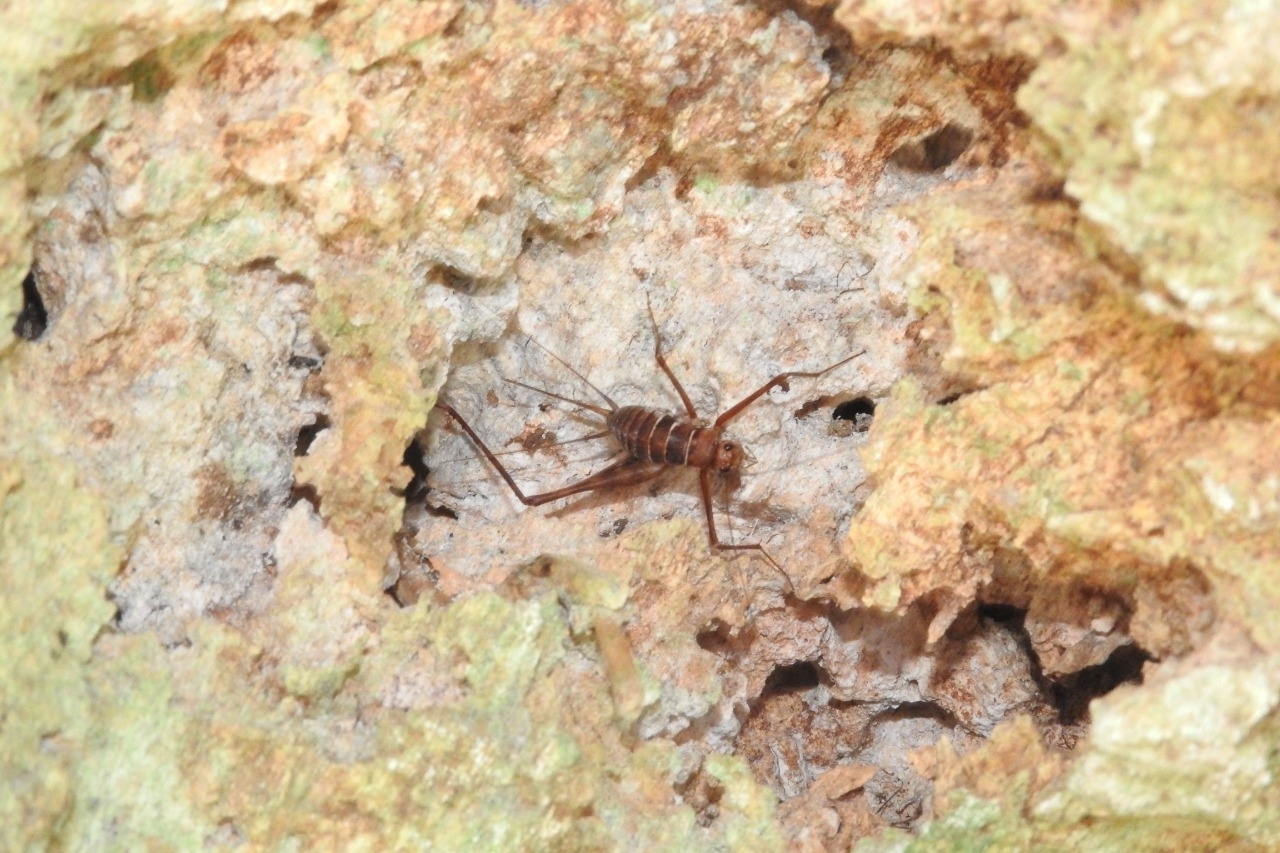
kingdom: Animalia
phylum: Arthropoda
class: Insecta
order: Orthoptera
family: Phalangopsidae
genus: Mayagryllus
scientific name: Mayagryllus yucatanus
